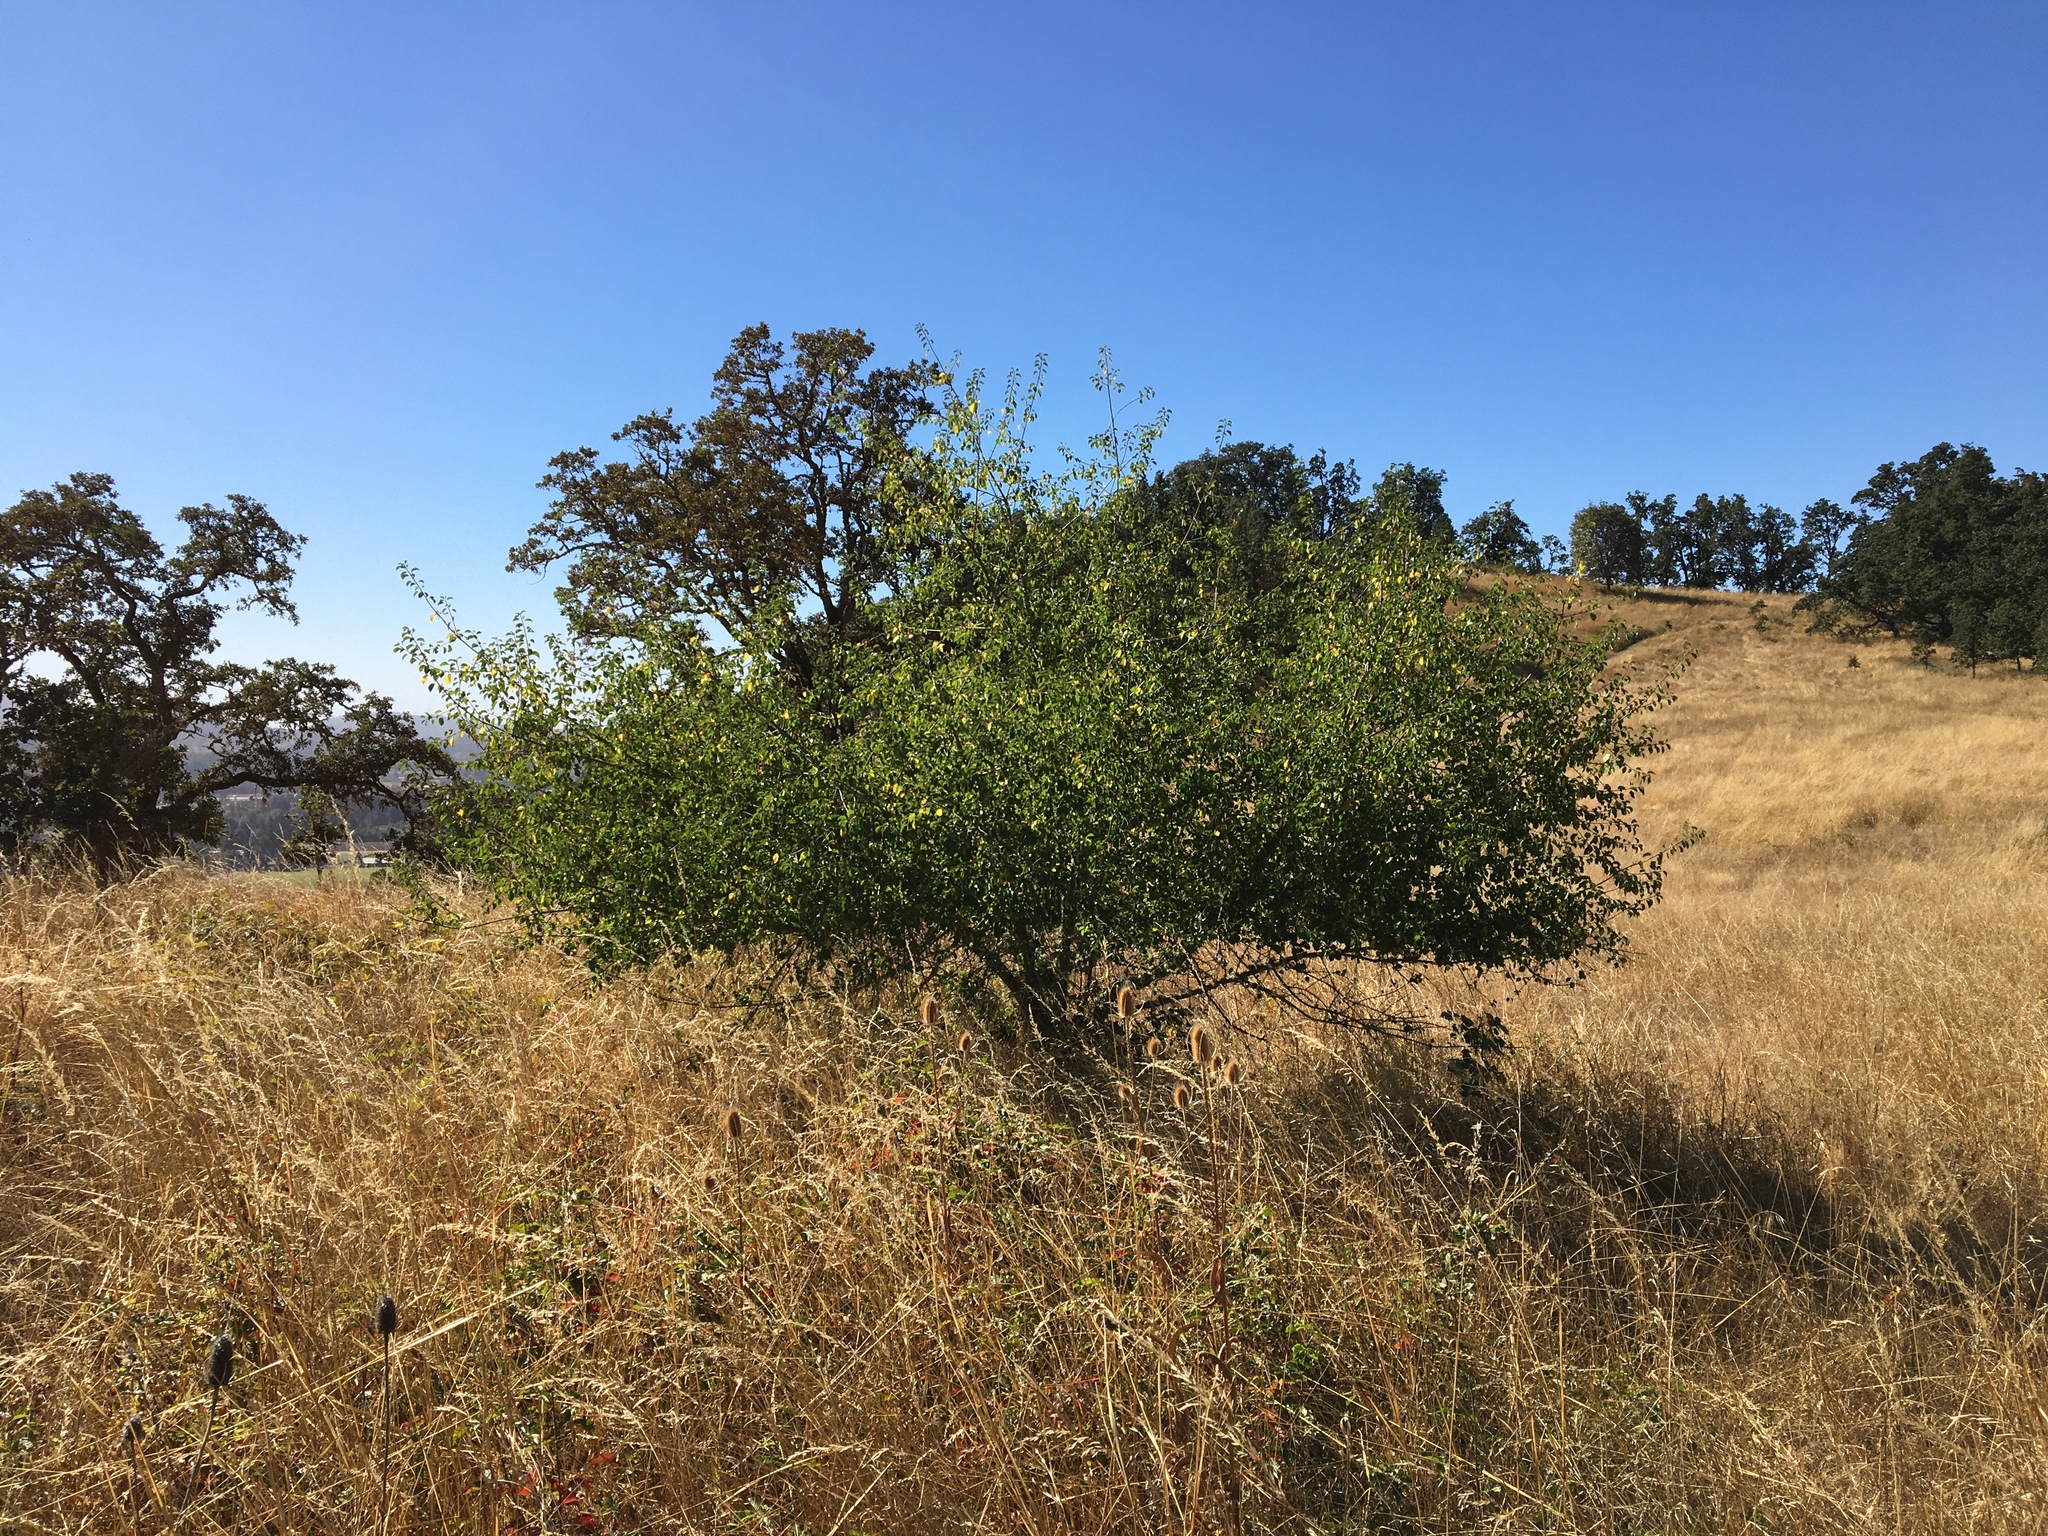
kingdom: Plantae
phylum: Tracheophyta
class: Magnoliopsida
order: Rosales
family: Rosaceae
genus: Prunus
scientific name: Prunus mahaleb
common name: Mahaleb cherry
